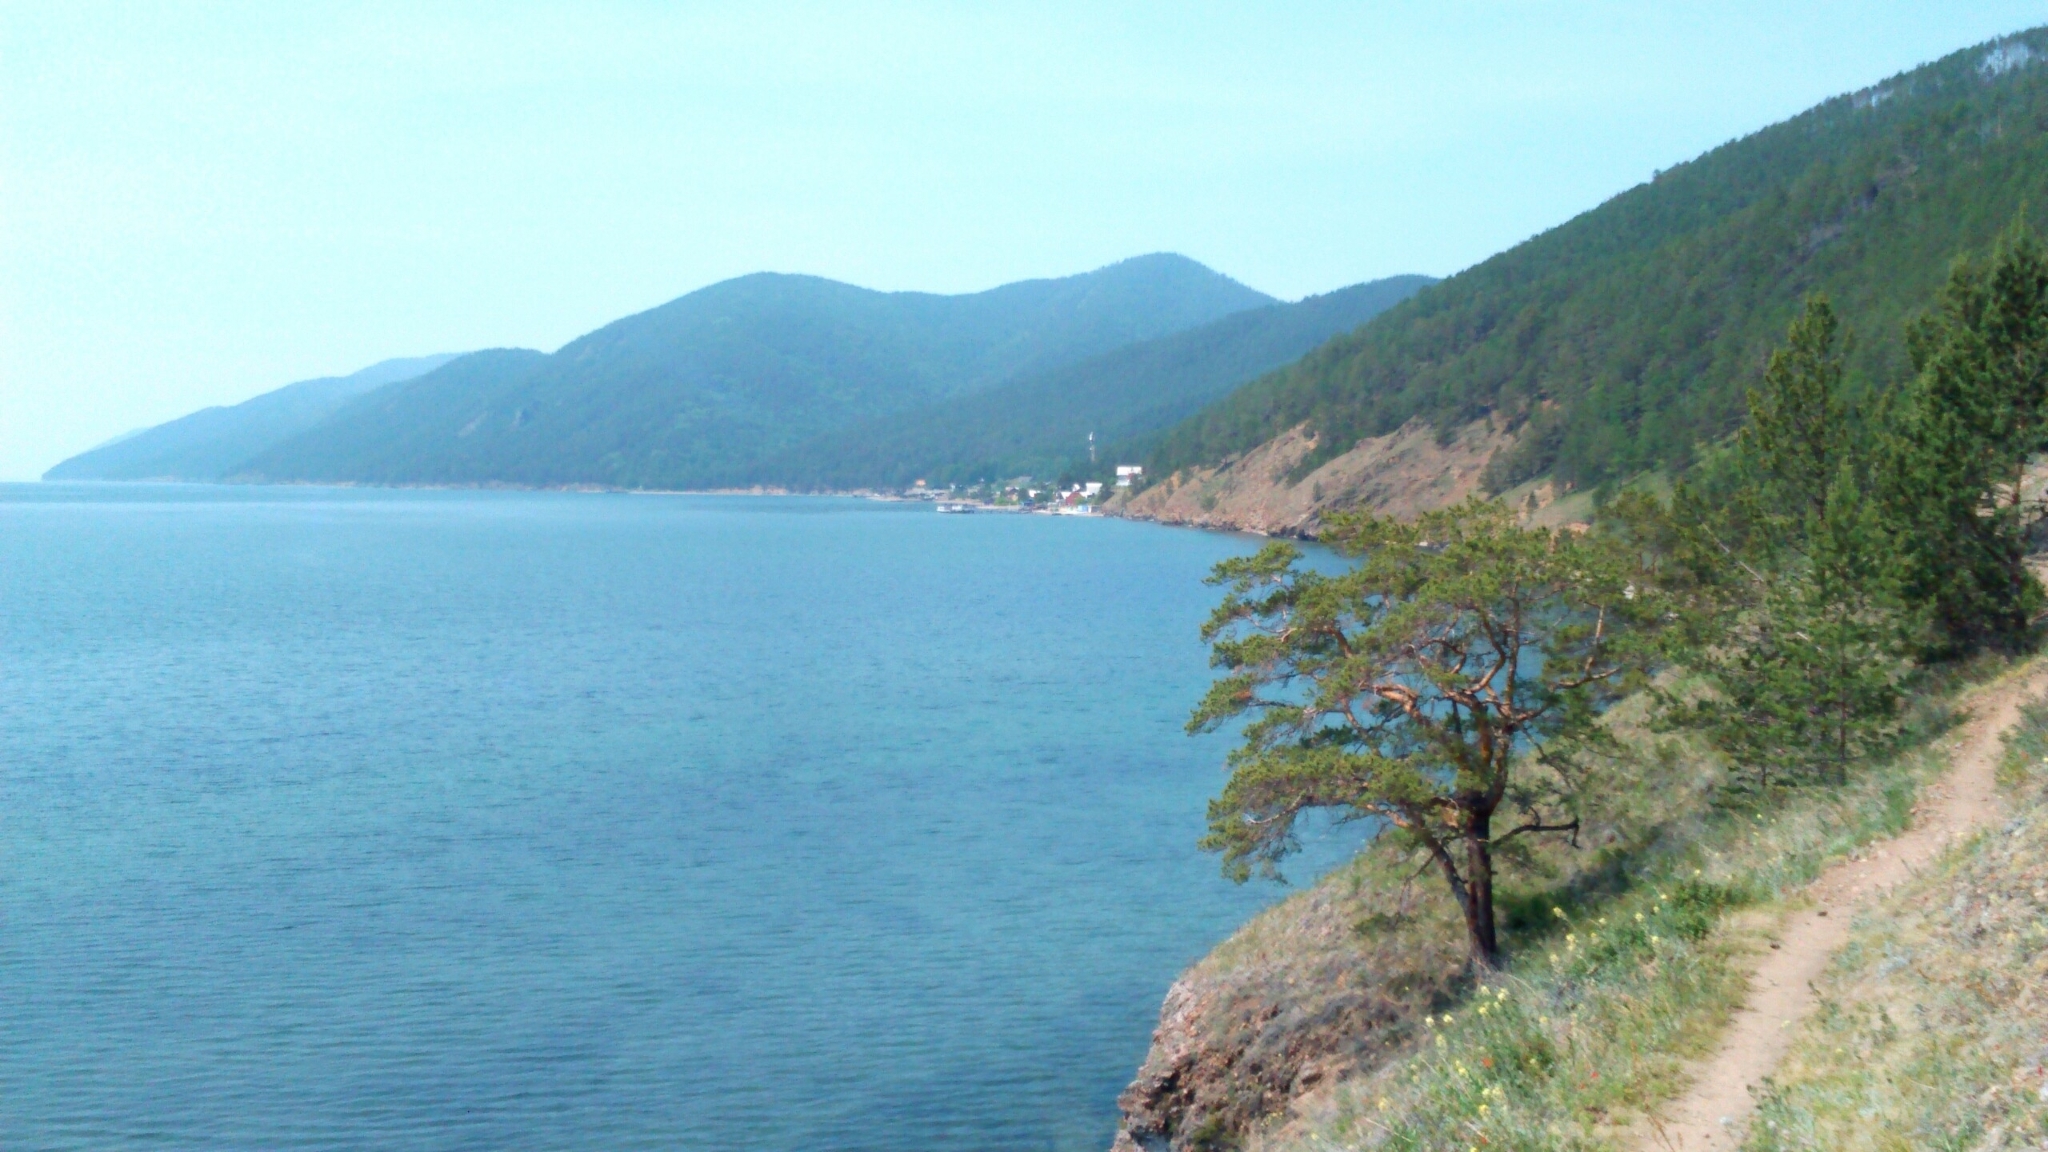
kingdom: Plantae
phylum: Tracheophyta
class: Pinopsida
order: Pinales
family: Pinaceae
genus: Pinus
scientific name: Pinus sylvestris
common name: Scots pine
